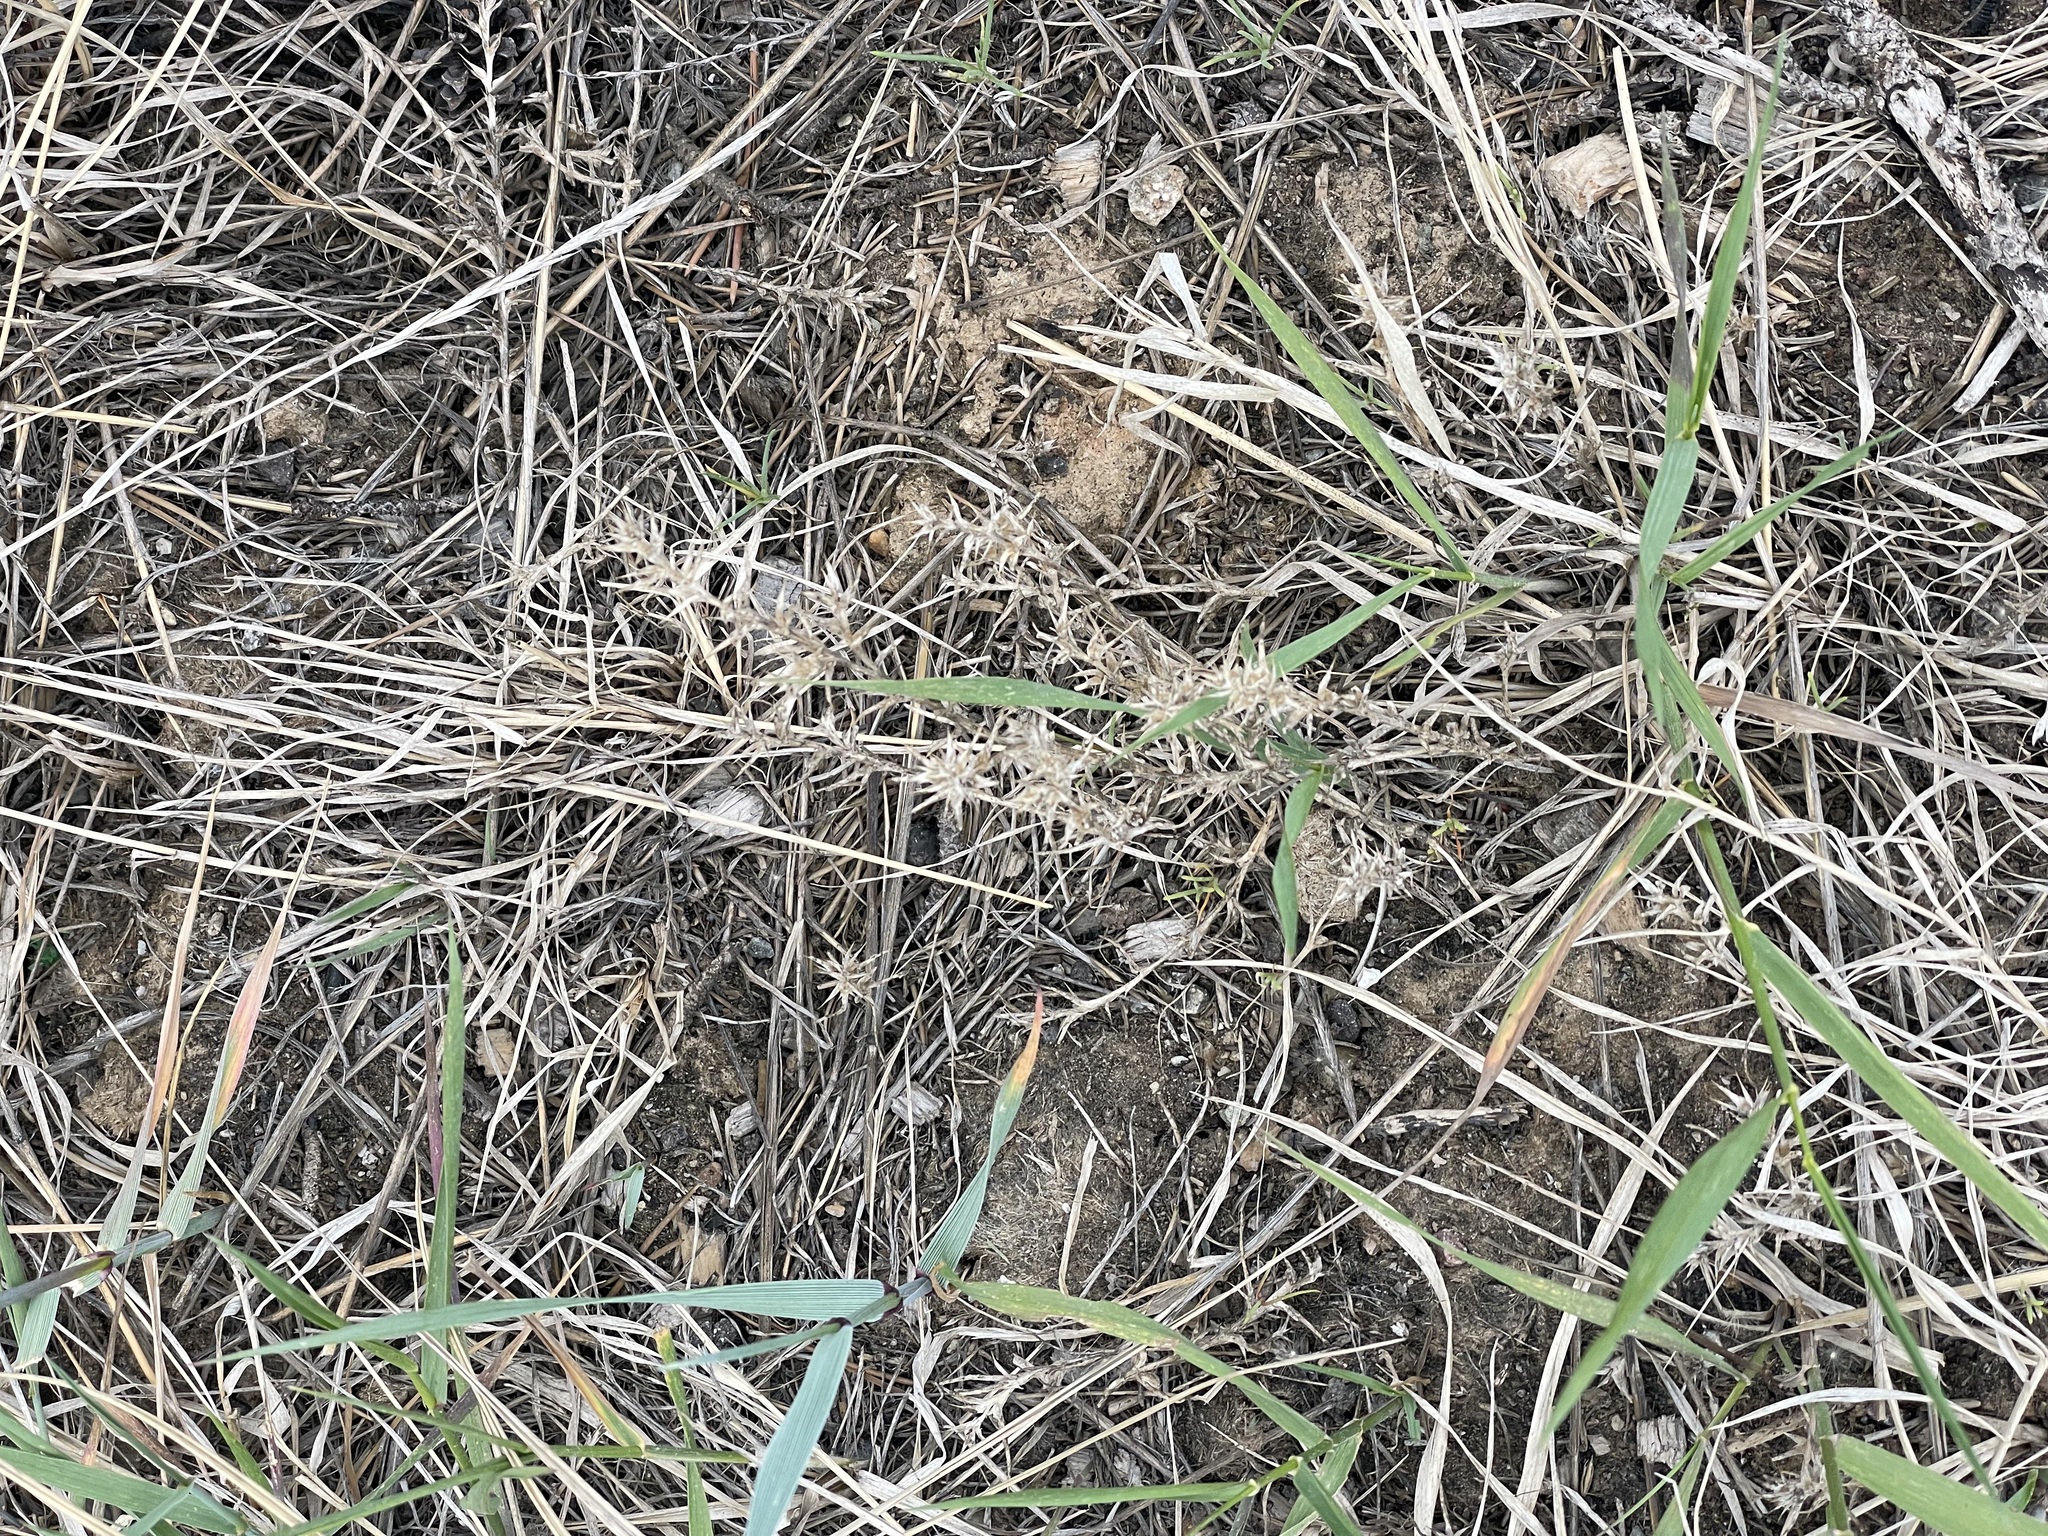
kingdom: Plantae
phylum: Tracheophyta
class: Magnoliopsida
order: Caryophyllales
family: Amaranthaceae
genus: Salsola
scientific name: Salsola tragus
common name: Prickly russian thistle
